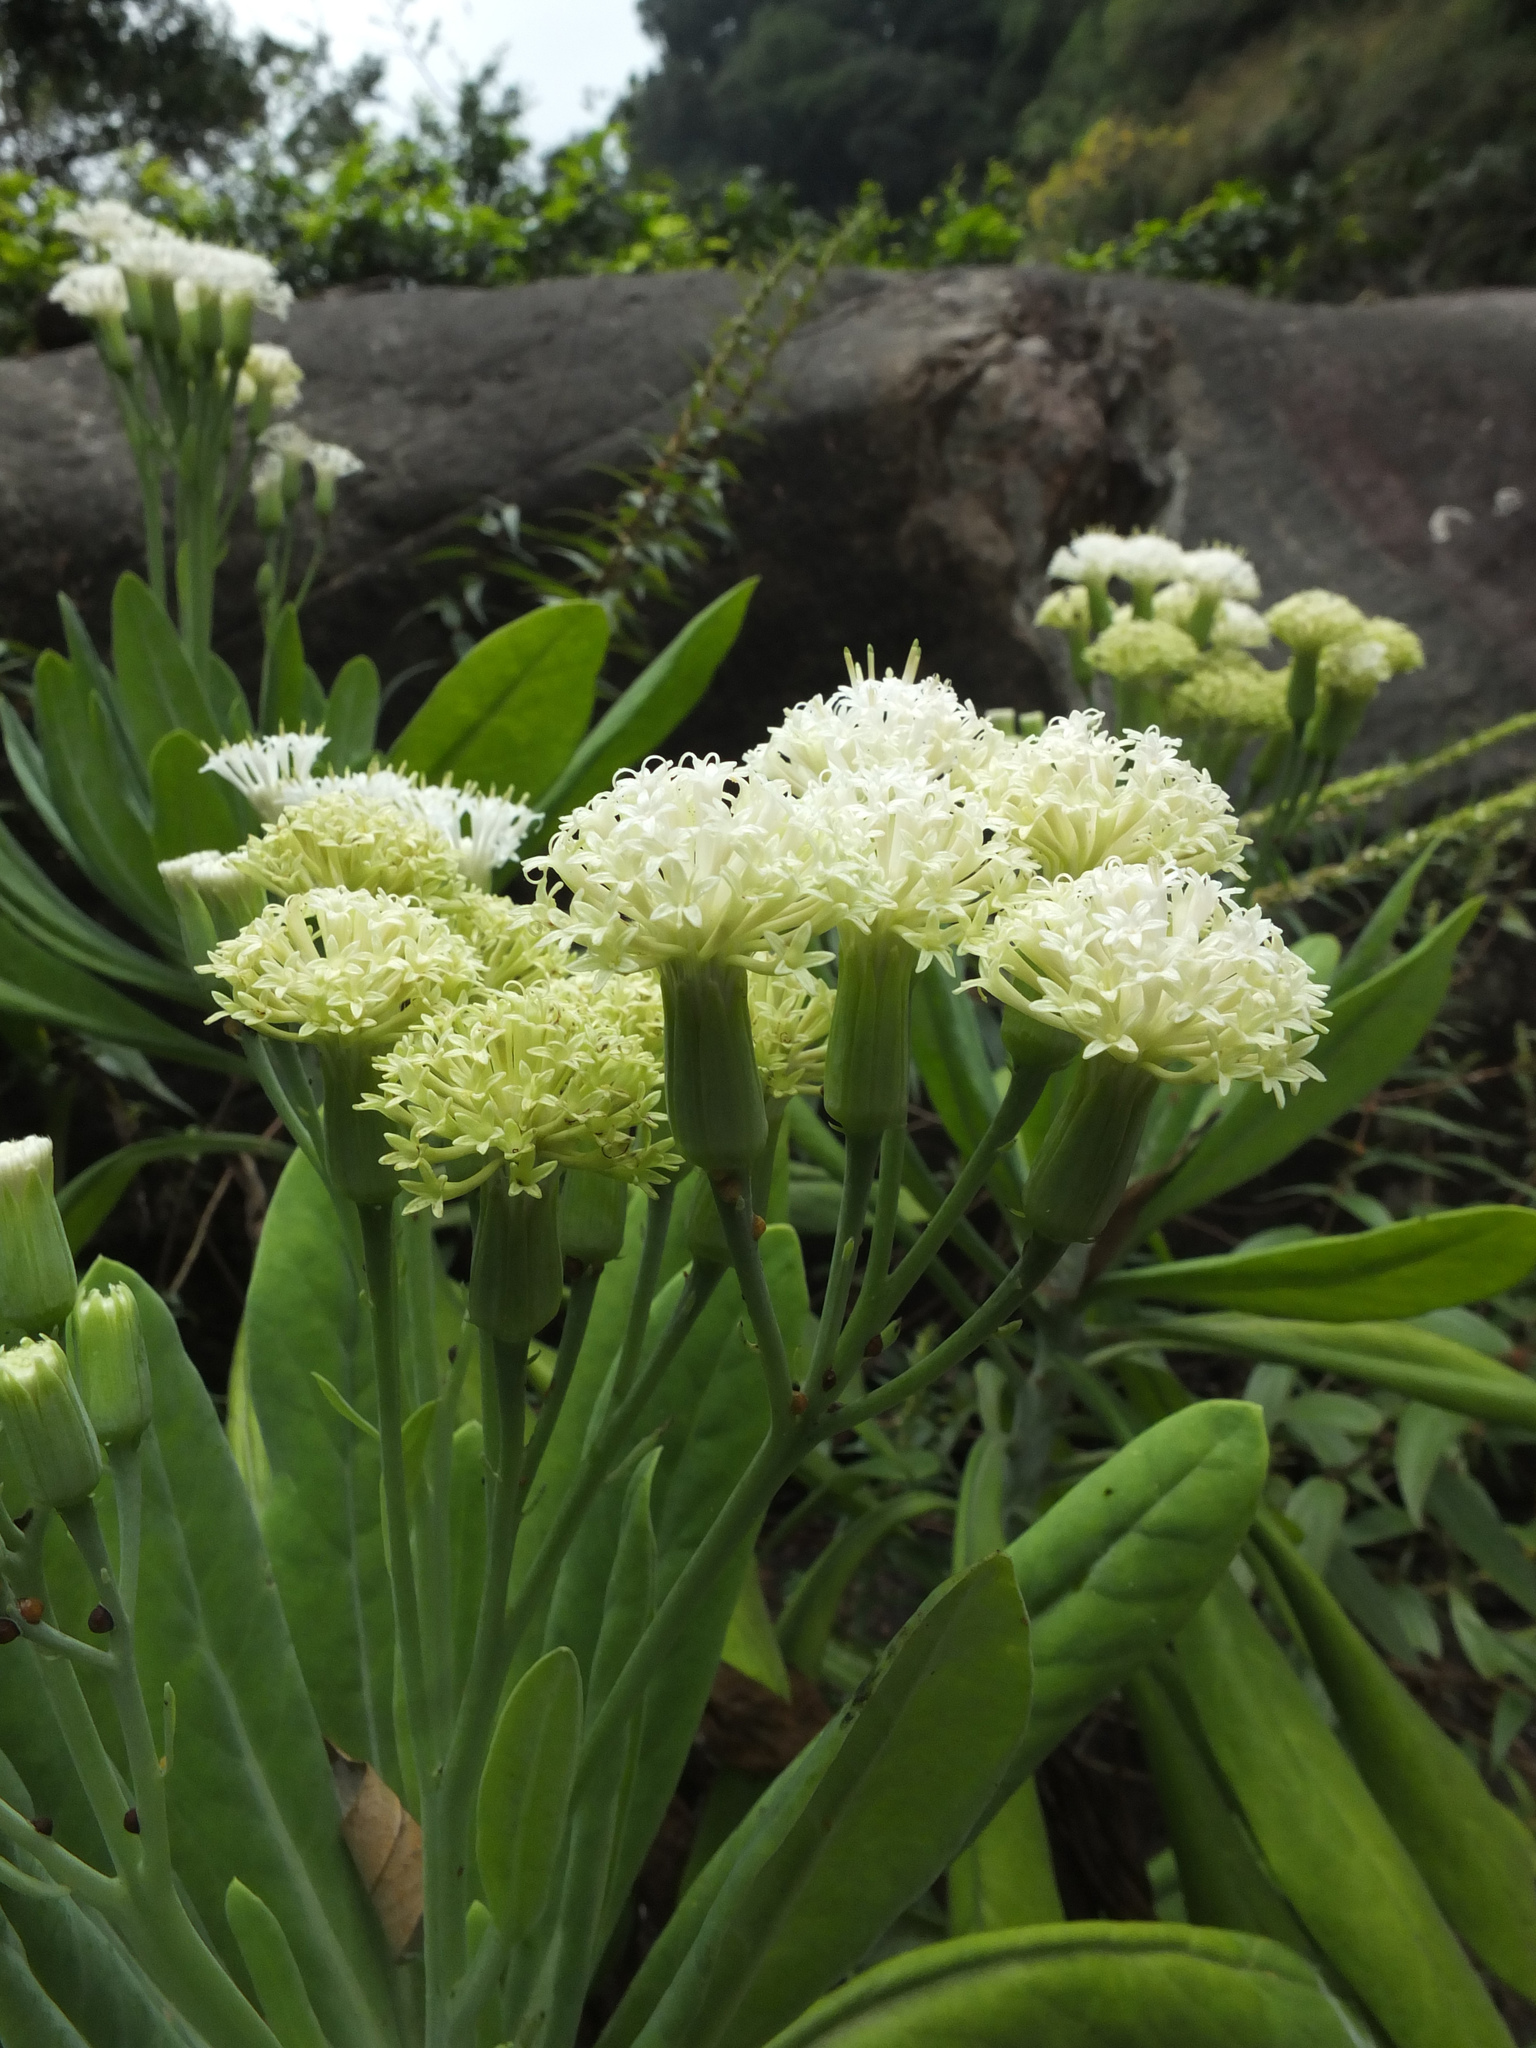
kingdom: Plantae
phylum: Tracheophyta
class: Magnoliopsida
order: Asterales
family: Asteraceae
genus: Kleinia
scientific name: Kleinia grandiflora
